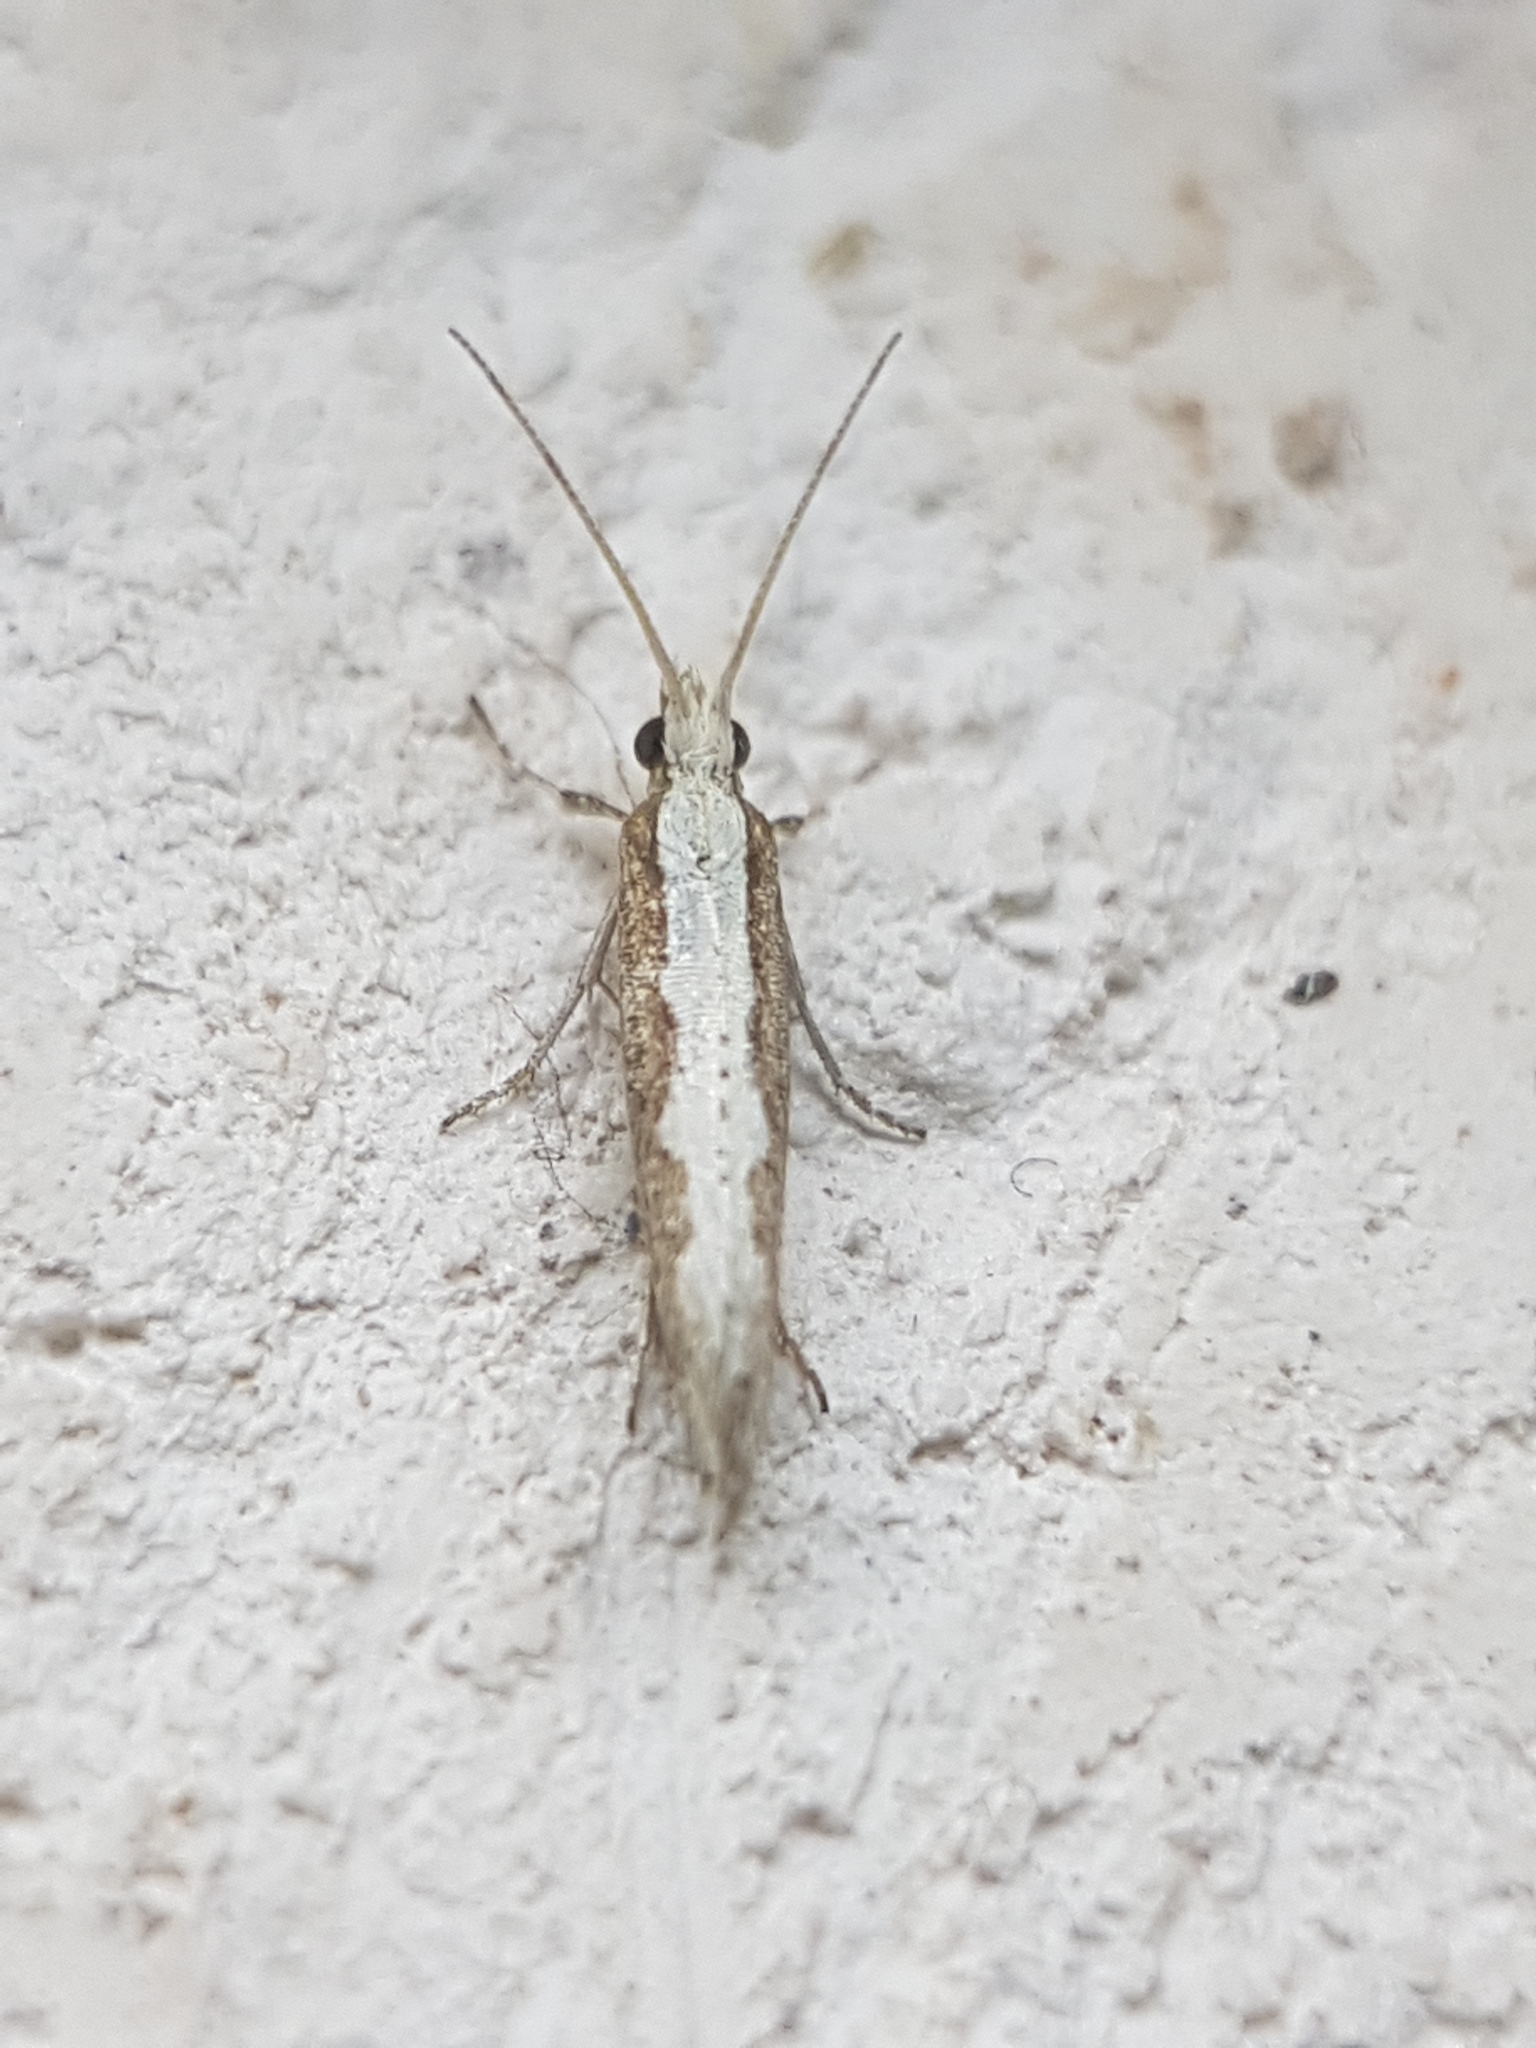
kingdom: Animalia
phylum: Arthropoda
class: Insecta
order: Lepidoptera
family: Plutellidae
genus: Plutella
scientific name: Plutella xylostella
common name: Diamond-back moth
